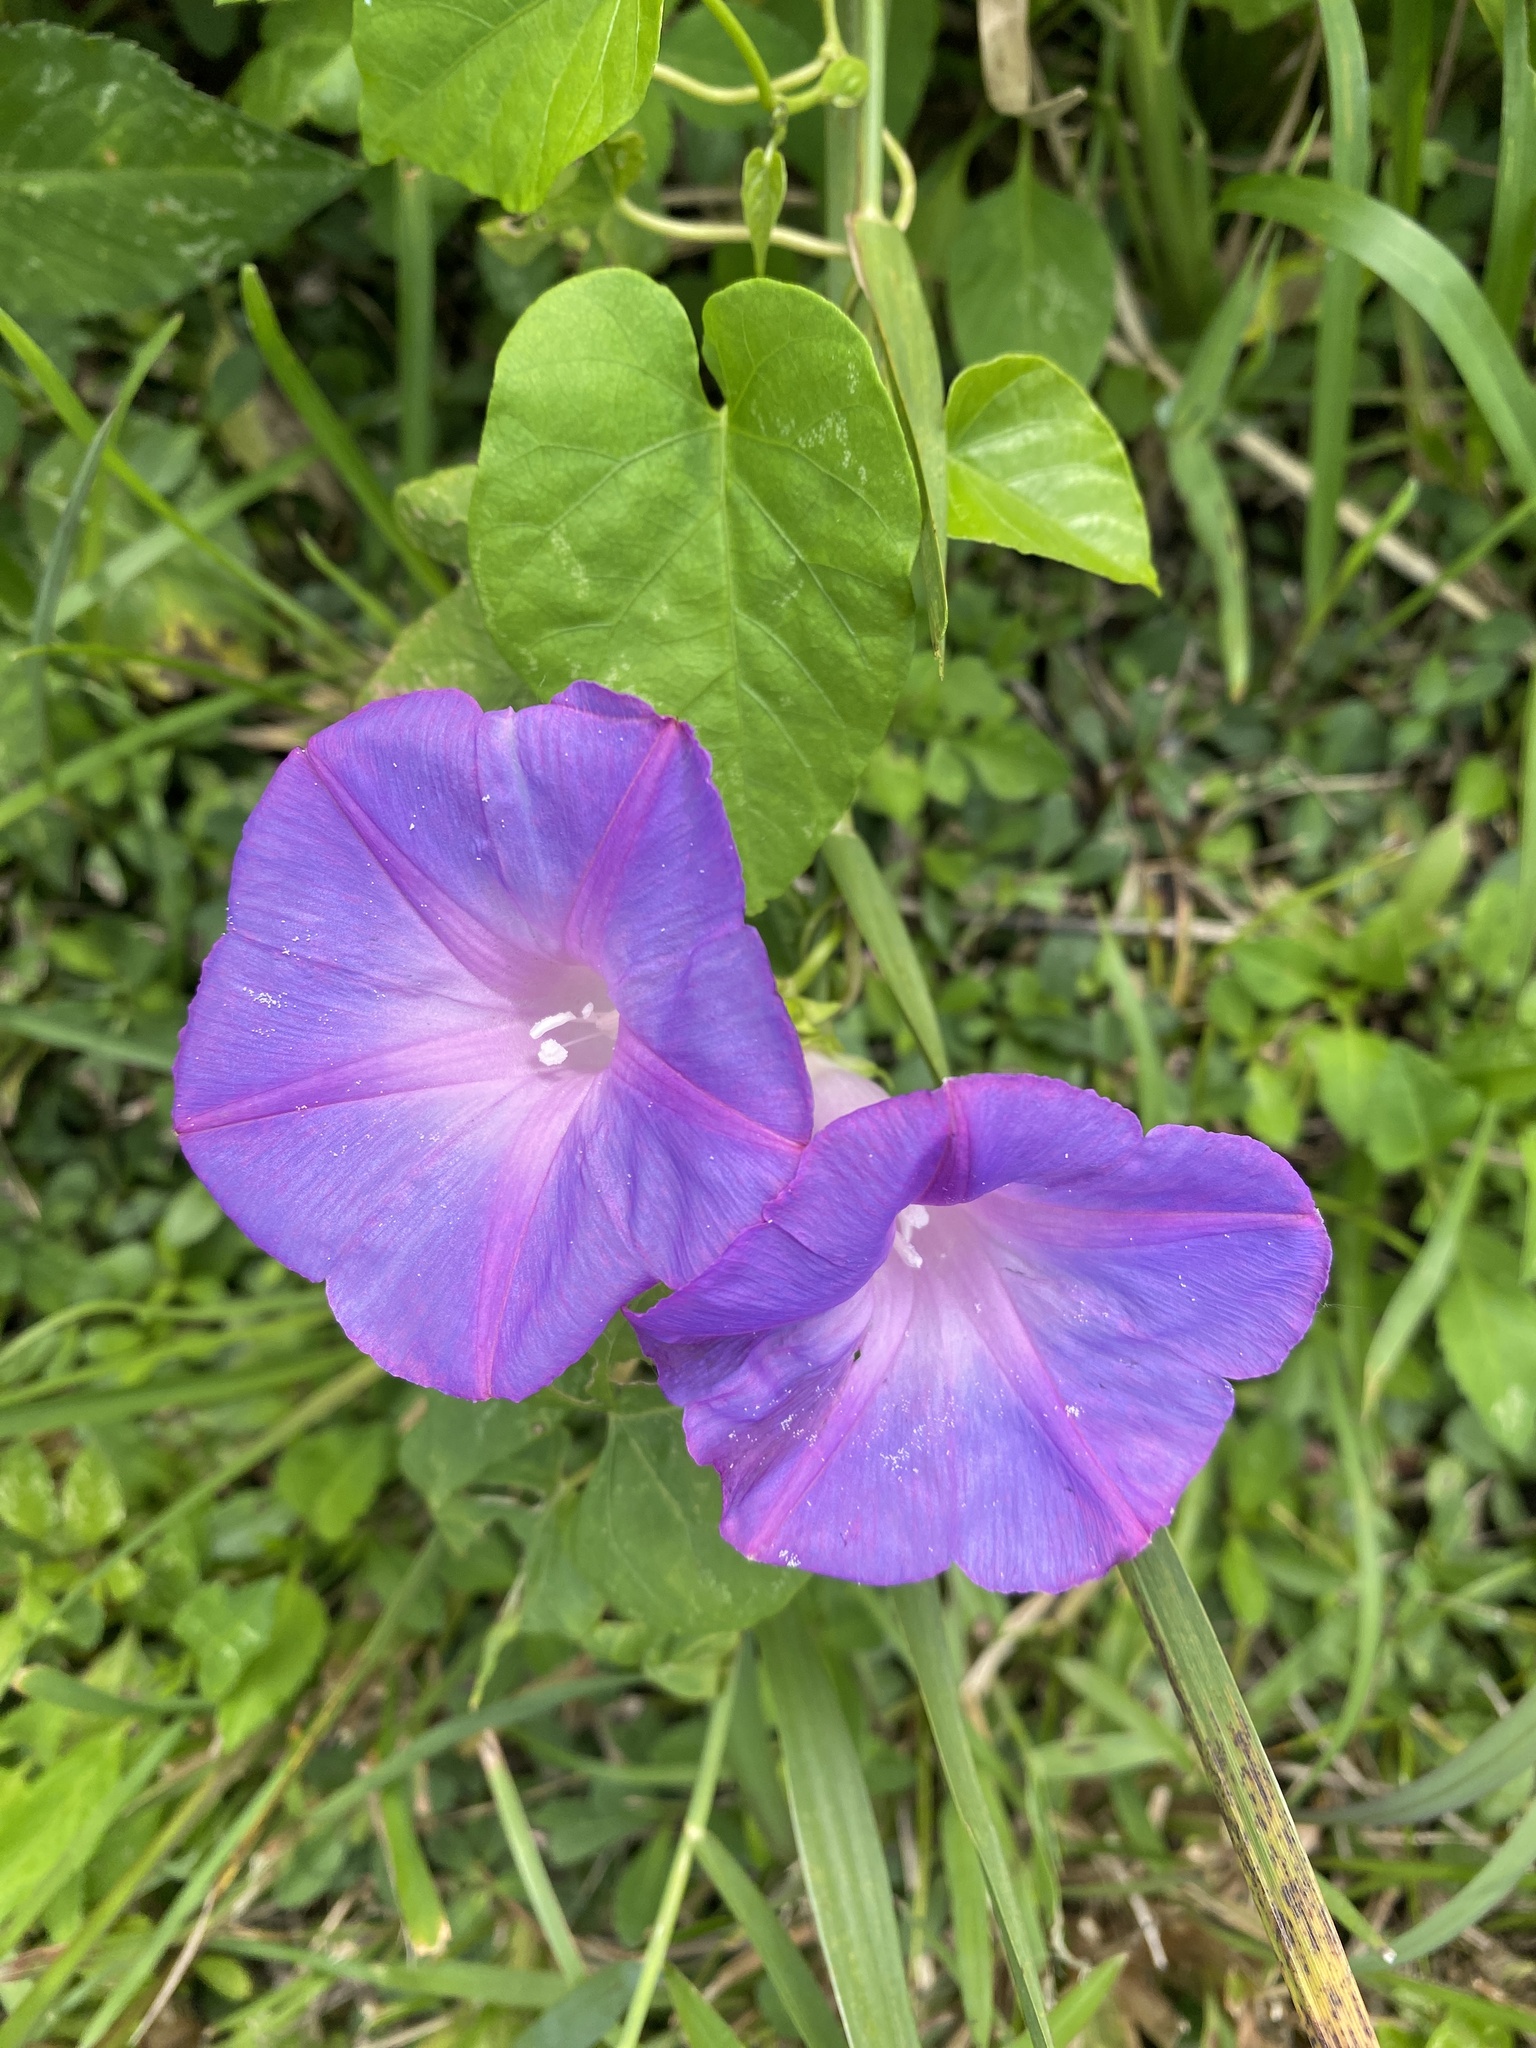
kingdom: Plantae
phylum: Tracheophyta
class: Magnoliopsida
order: Solanales
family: Convolvulaceae
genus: Ipomoea
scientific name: Ipomoea indica
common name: Blue dawnflower
